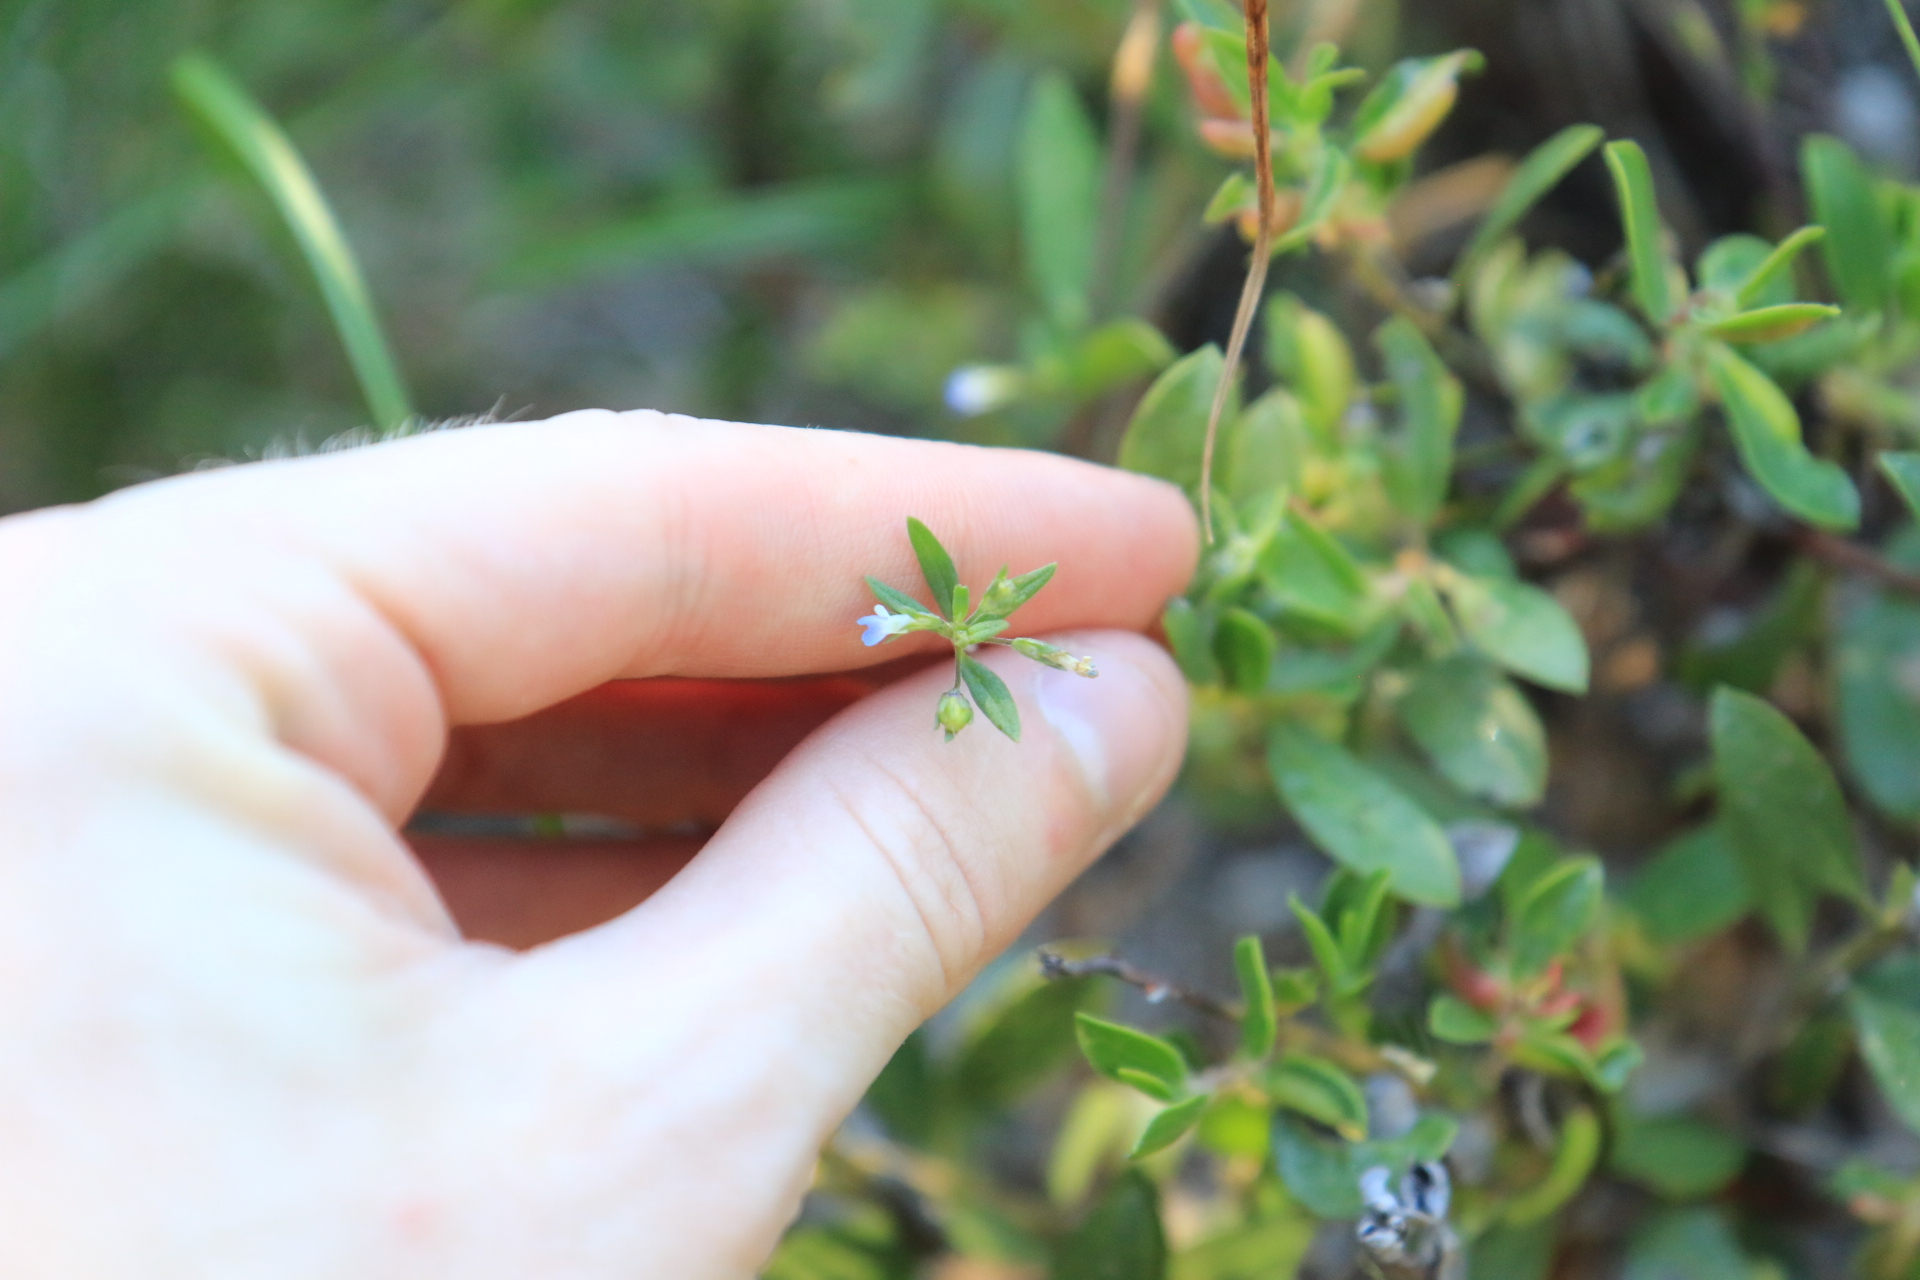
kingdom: Plantae
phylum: Tracheophyta
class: Magnoliopsida
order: Lamiales
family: Plantaginaceae
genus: Collinsia
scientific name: Collinsia parviflora
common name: Blue-lips
